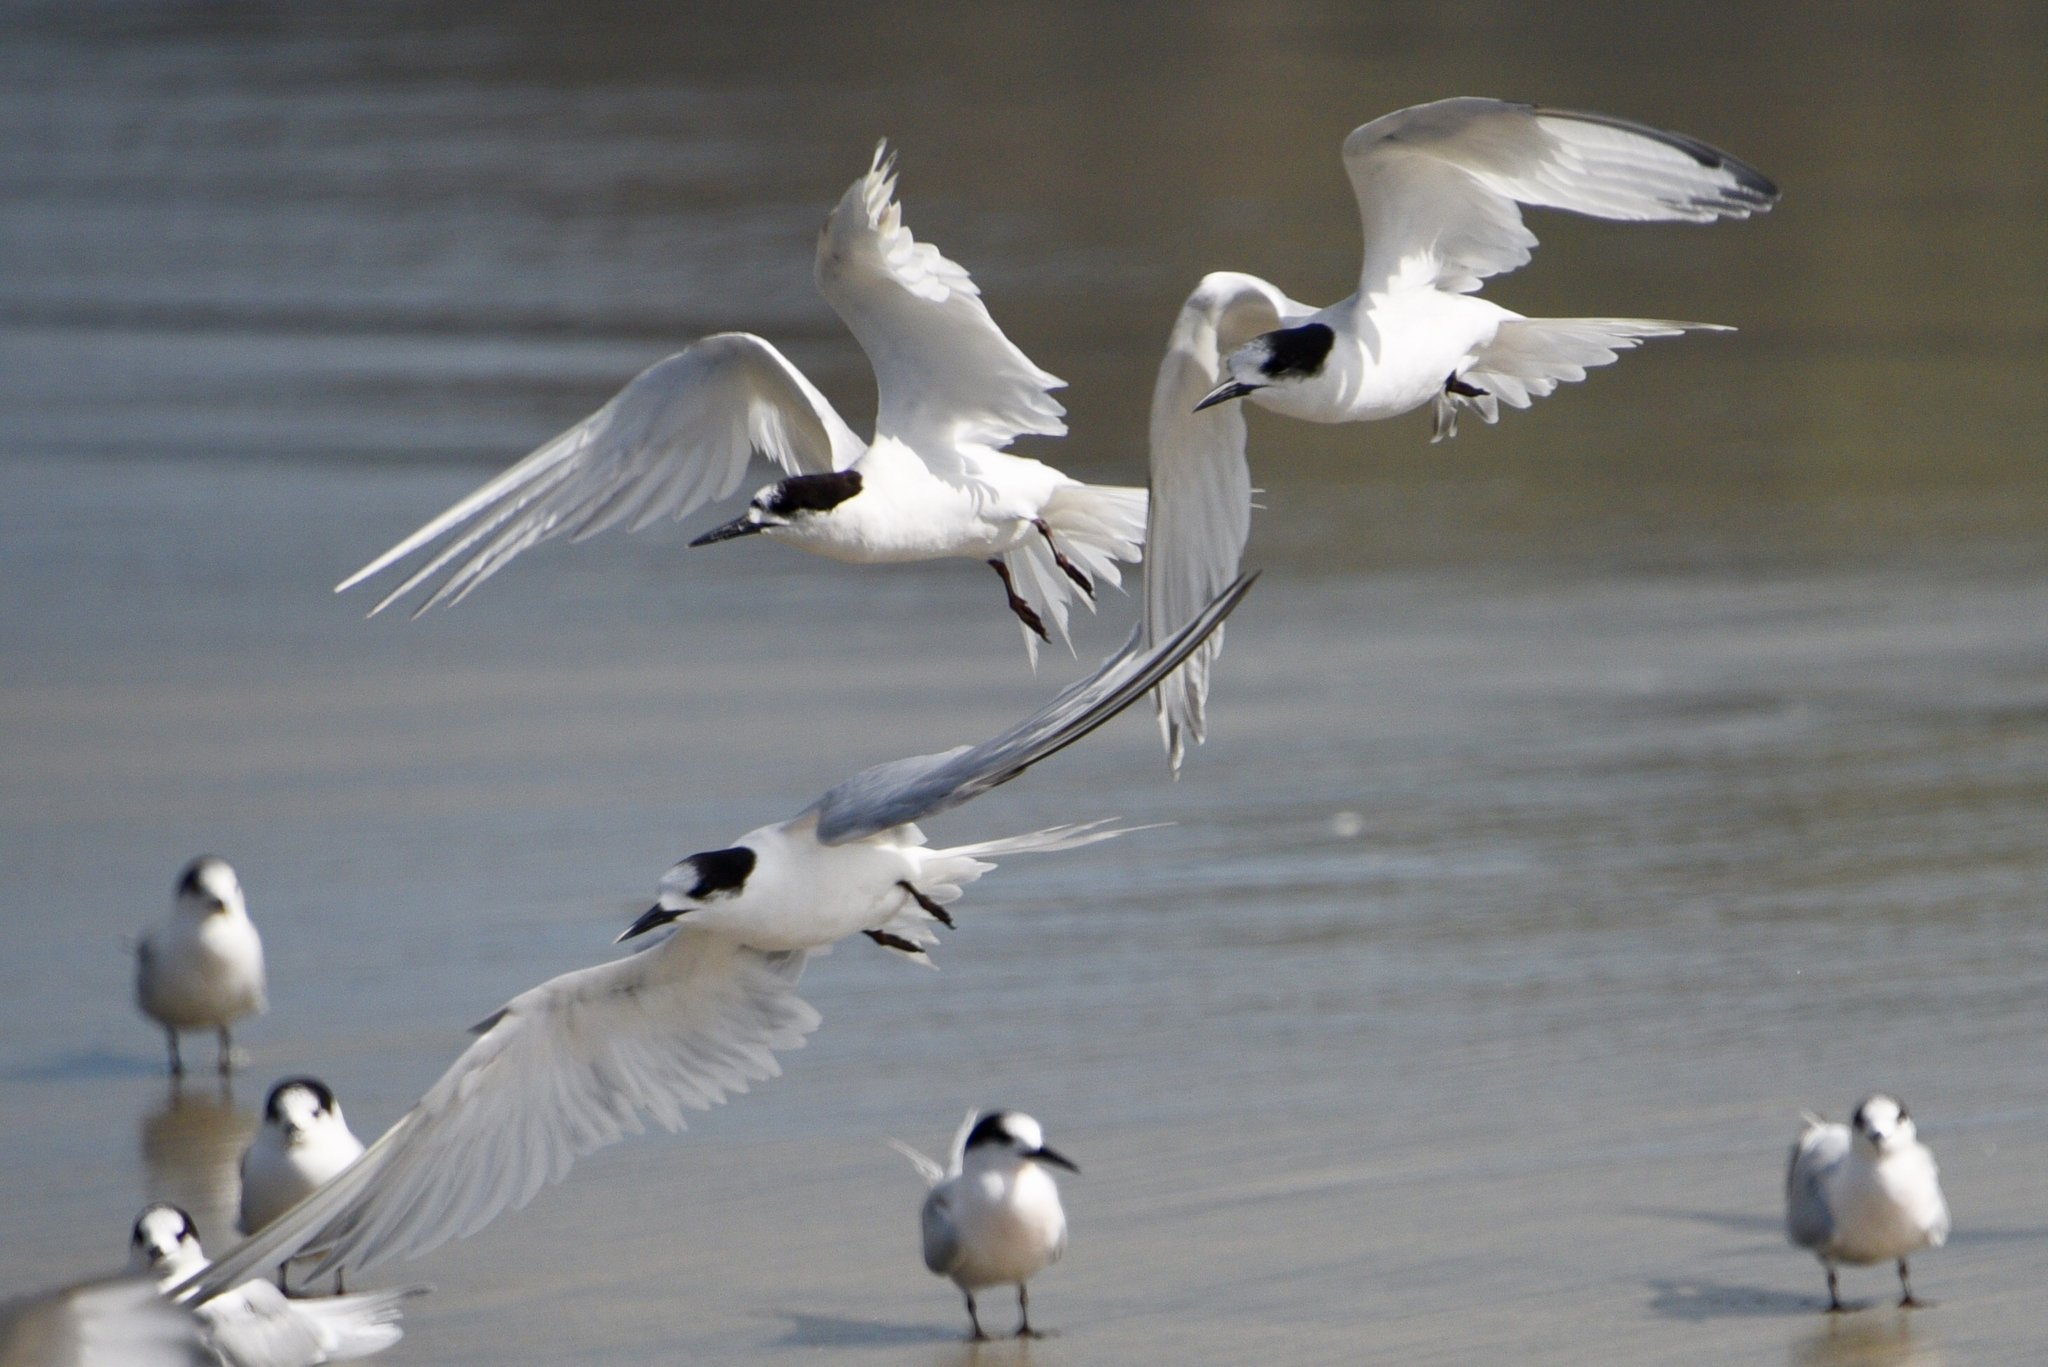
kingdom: Animalia
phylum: Chordata
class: Aves
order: Charadriiformes
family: Laridae
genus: Sterna
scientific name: Sterna striata
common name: White-fronted tern
